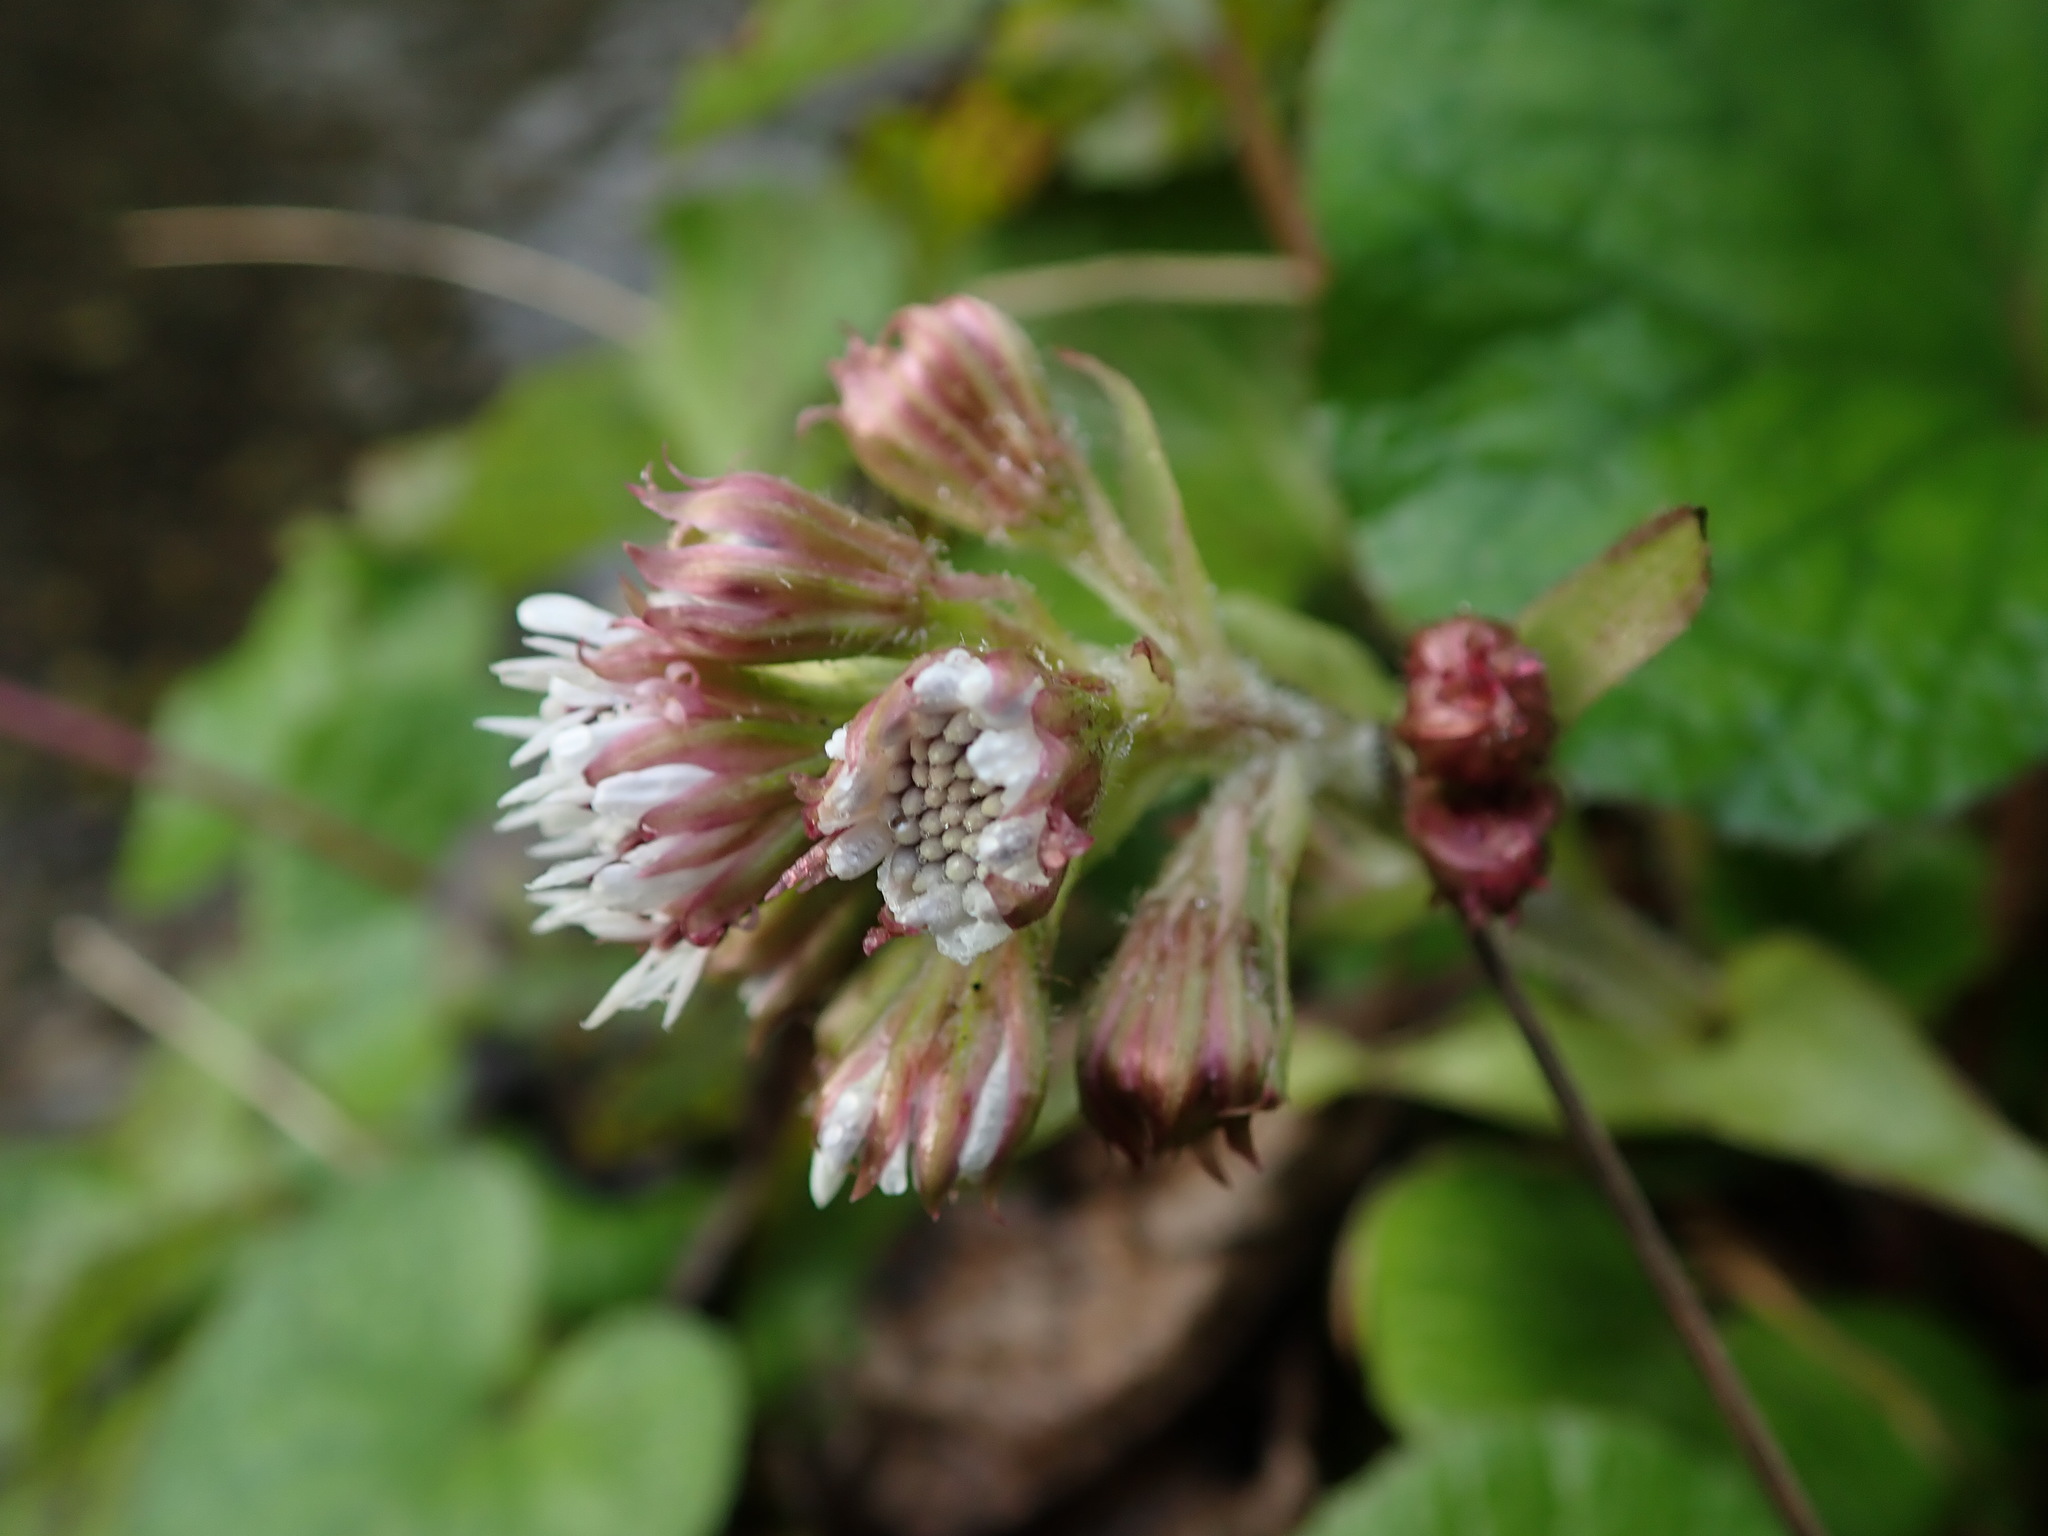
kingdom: Plantae
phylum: Tracheophyta
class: Magnoliopsida
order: Asterales
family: Asteraceae
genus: Petasites
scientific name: Petasites pyrenaicus
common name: Winter heliotrope
